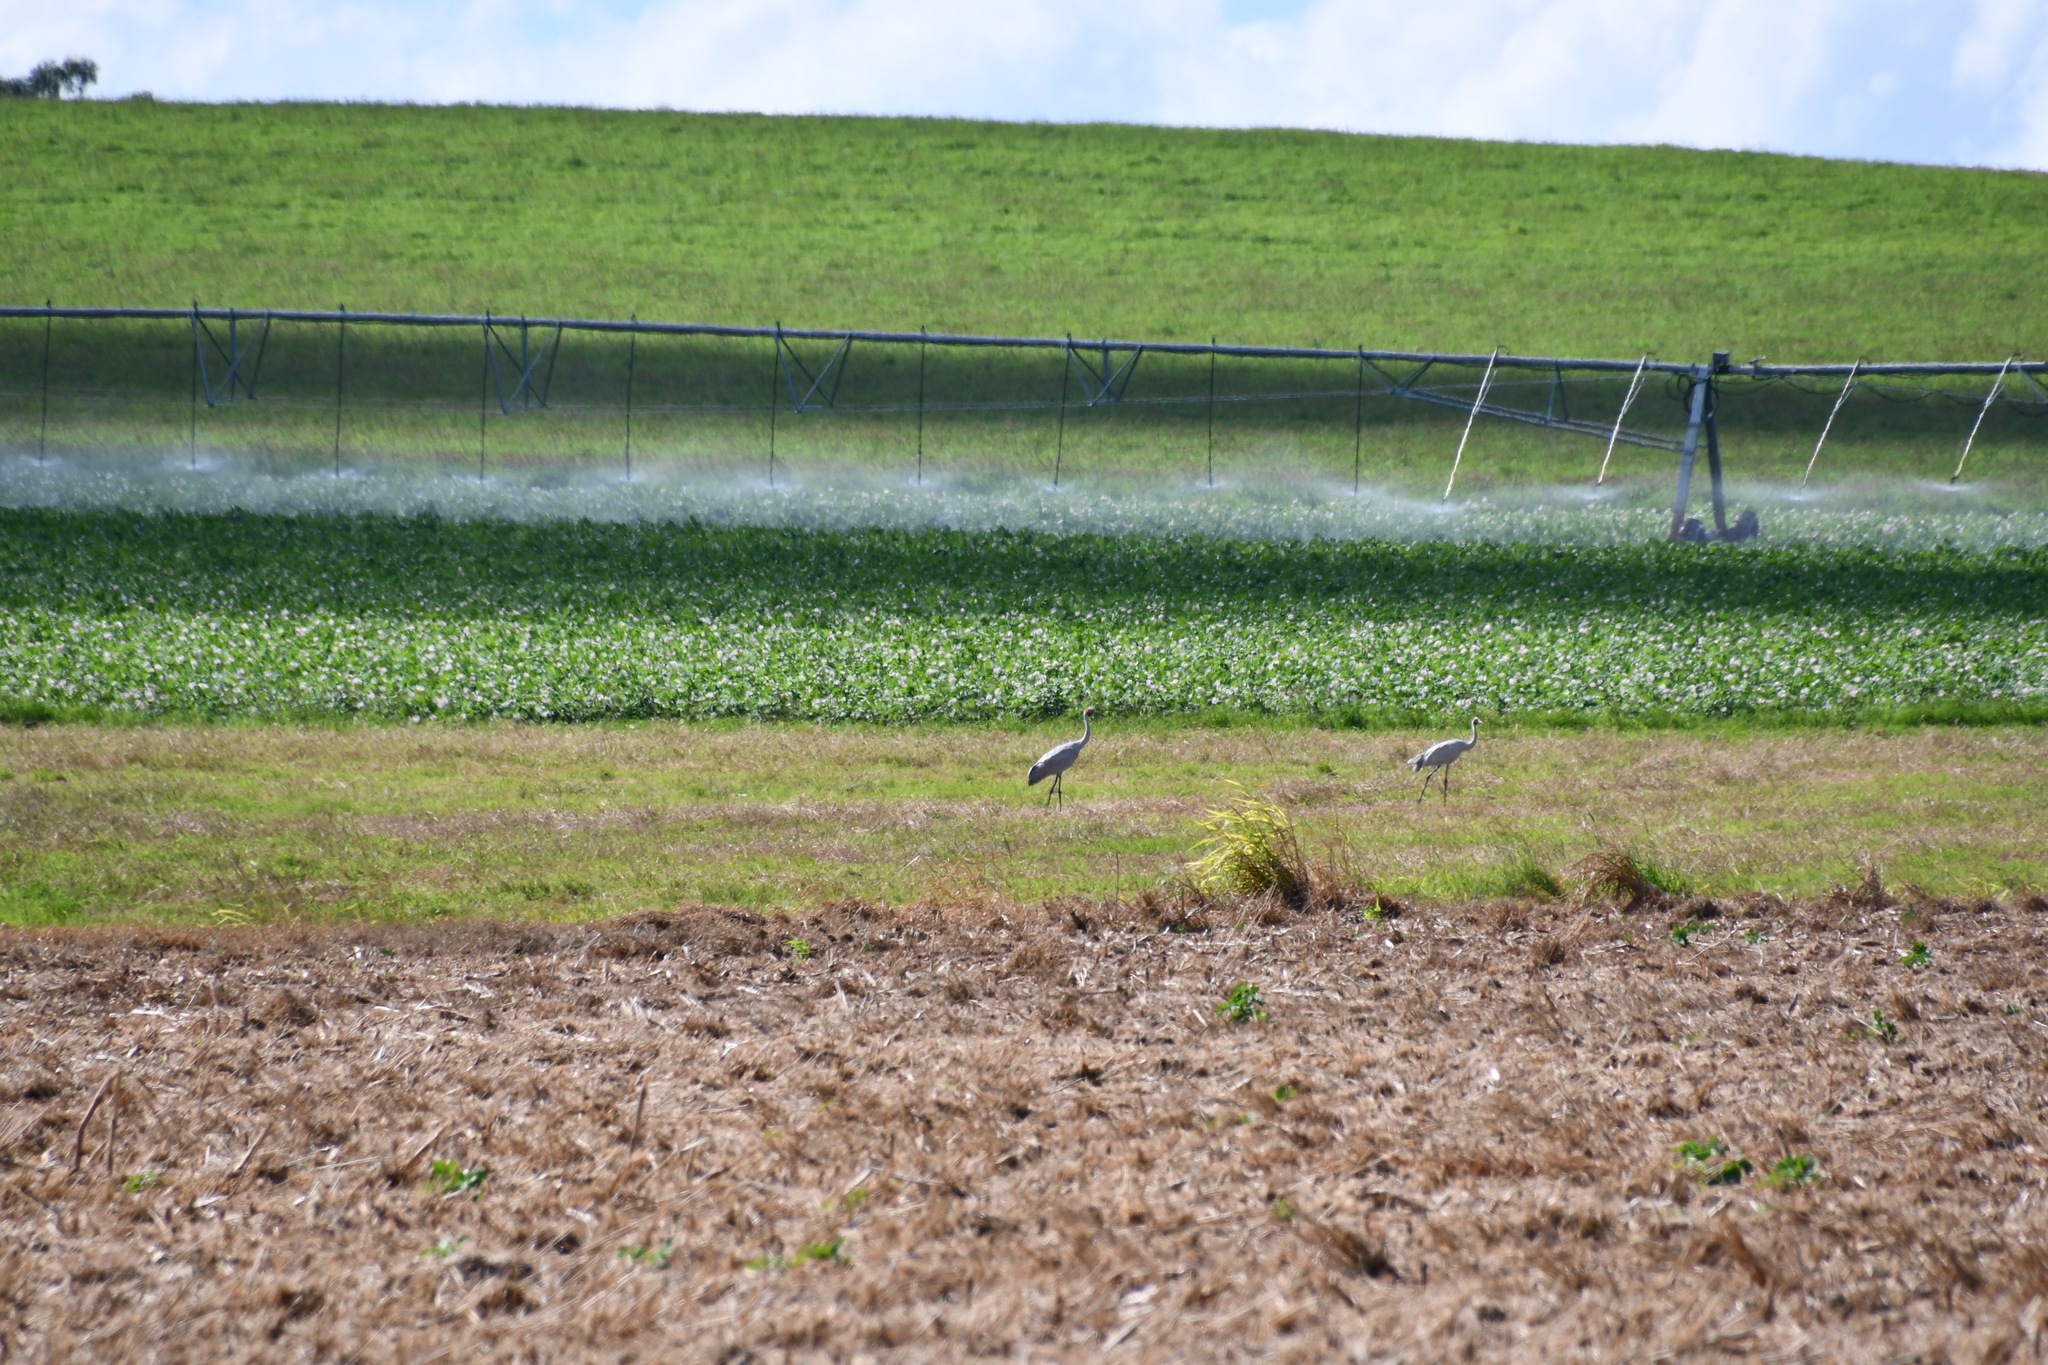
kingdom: Animalia
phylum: Chordata
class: Aves
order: Gruiformes
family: Gruidae
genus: Grus
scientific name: Grus rubicunda
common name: Brolga
